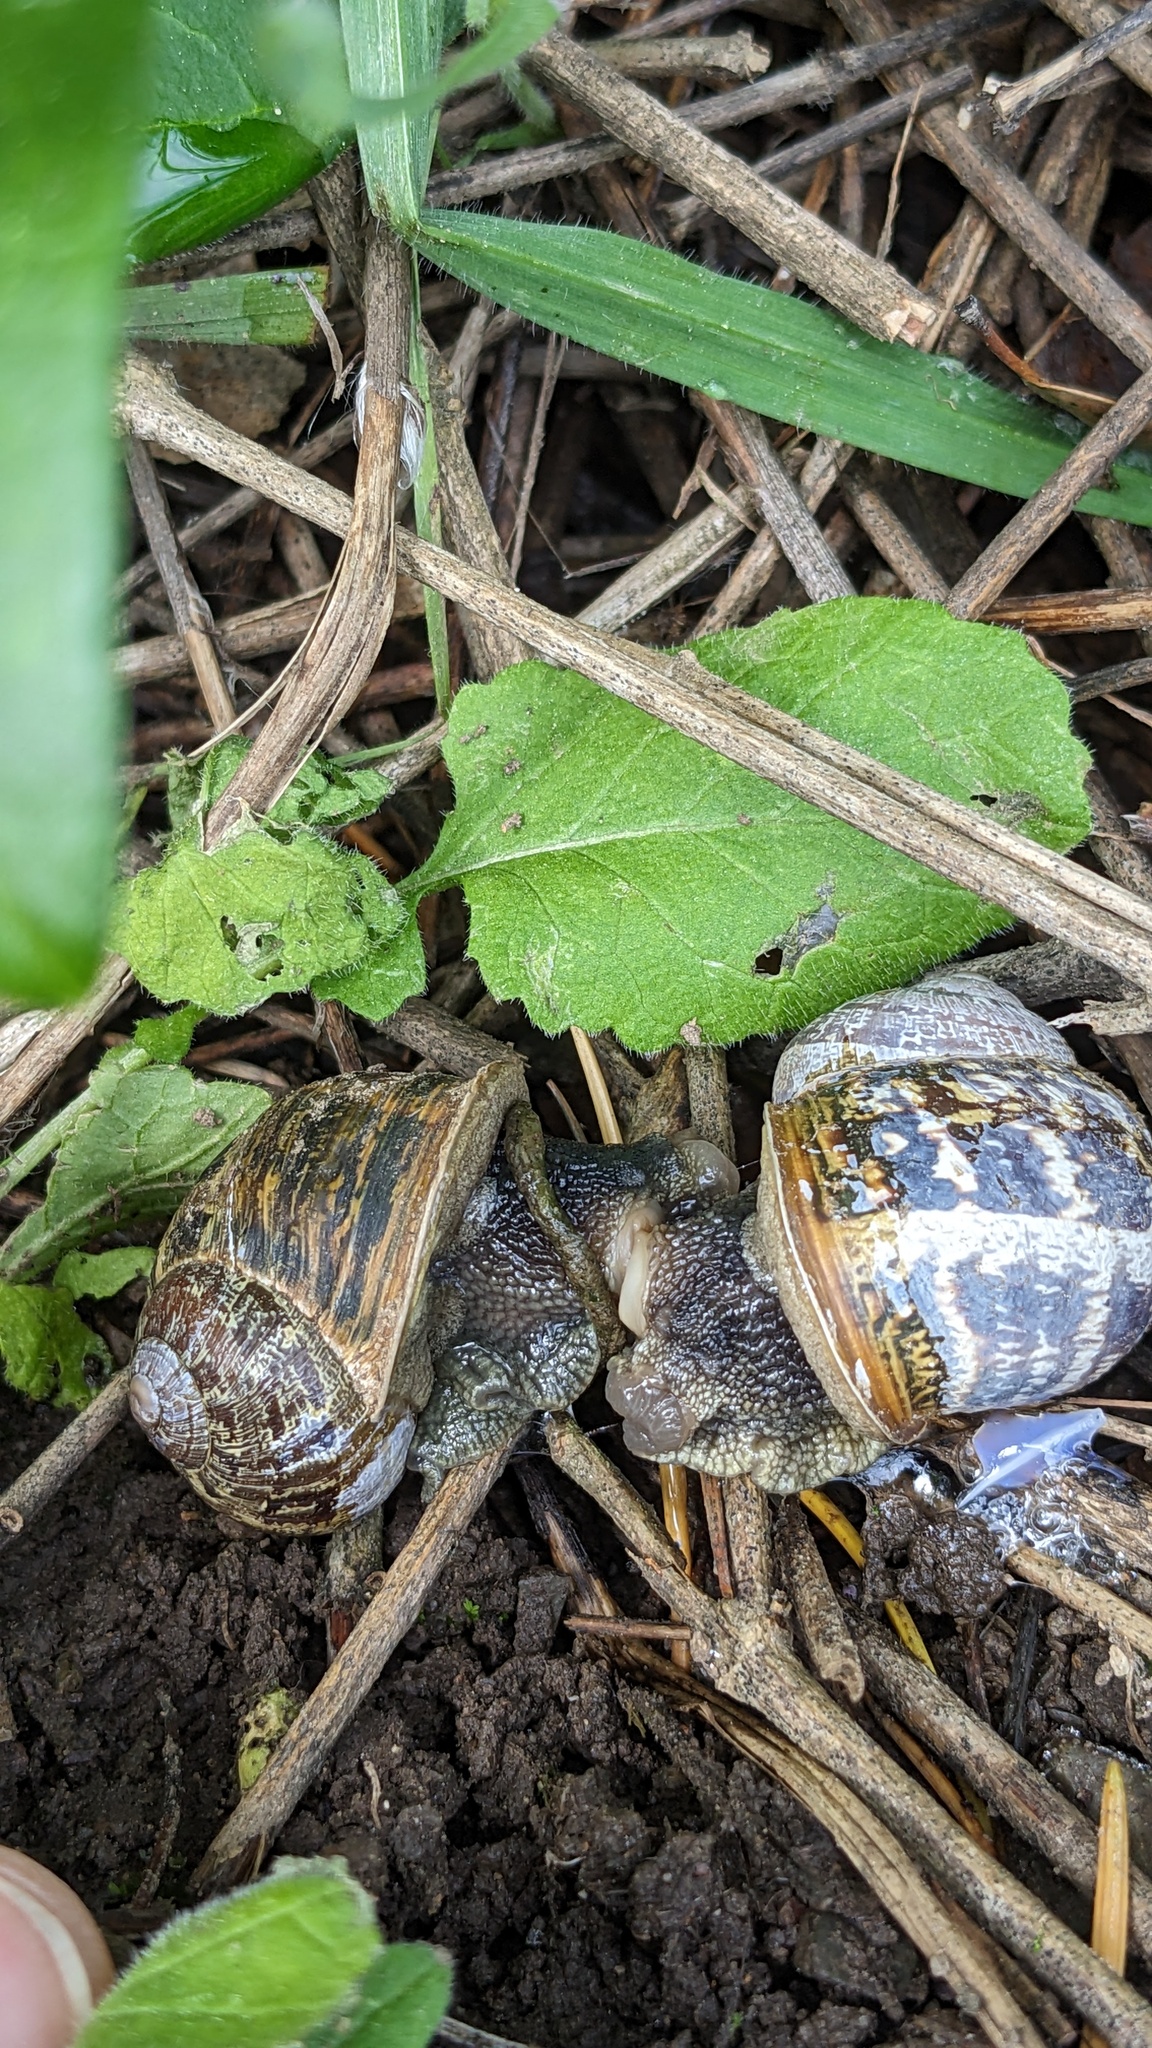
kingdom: Animalia
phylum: Mollusca
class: Gastropoda
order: Stylommatophora
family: Helicidae
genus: Cornu
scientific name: Cornu aspersum
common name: Brown garden snail
